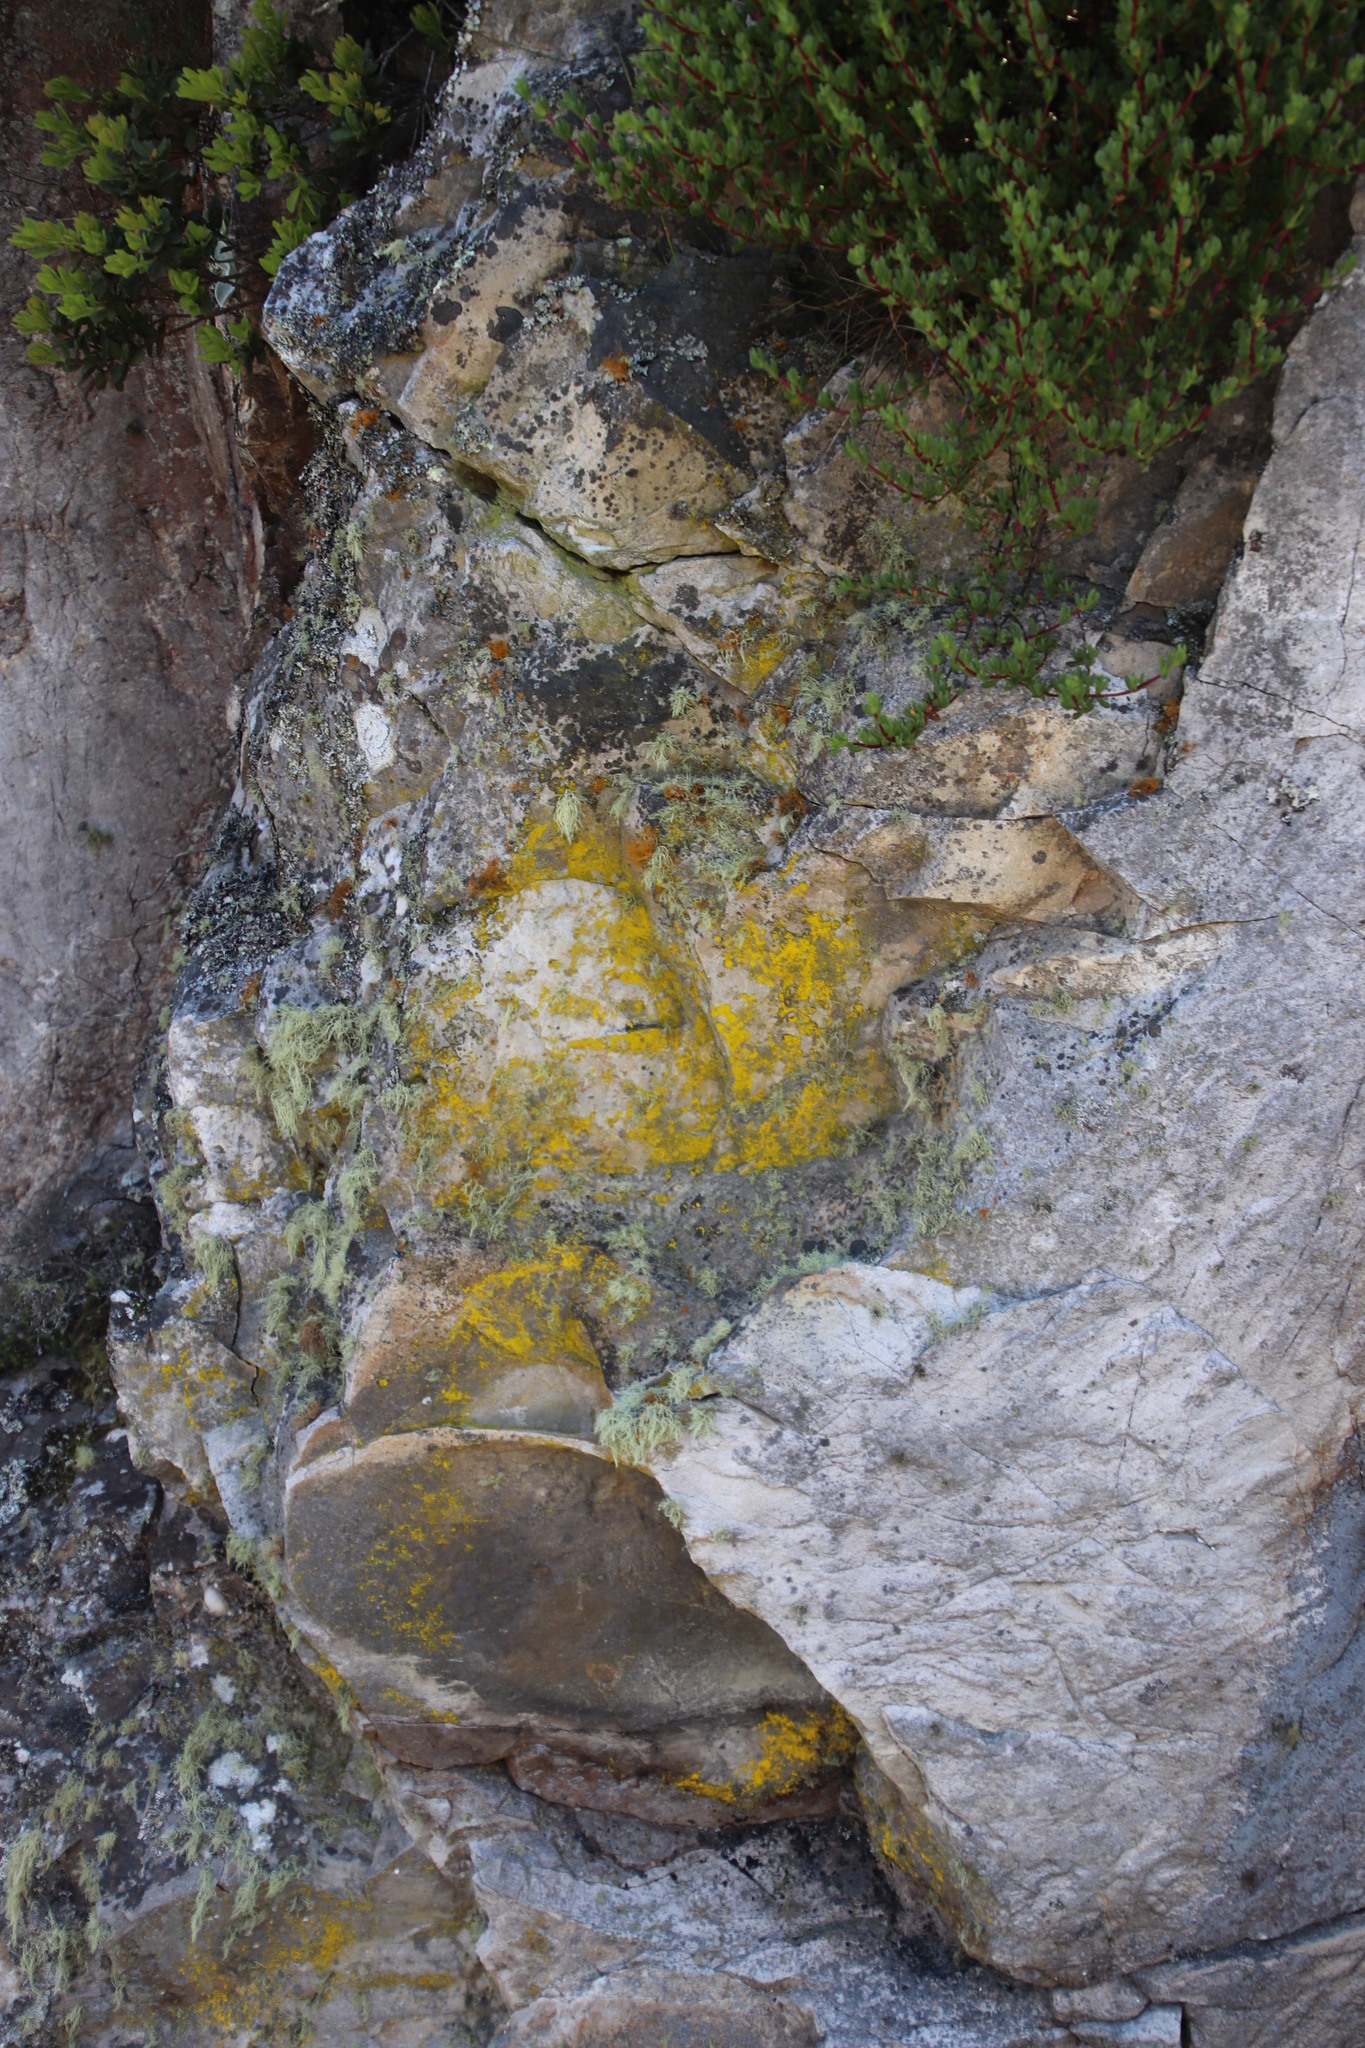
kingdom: Fungi
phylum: Ascomycota
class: Arthoniomycetes
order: Arthoniales
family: Chrysotrichaceae
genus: Chrysothrix
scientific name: Chrysothrix candelaris
